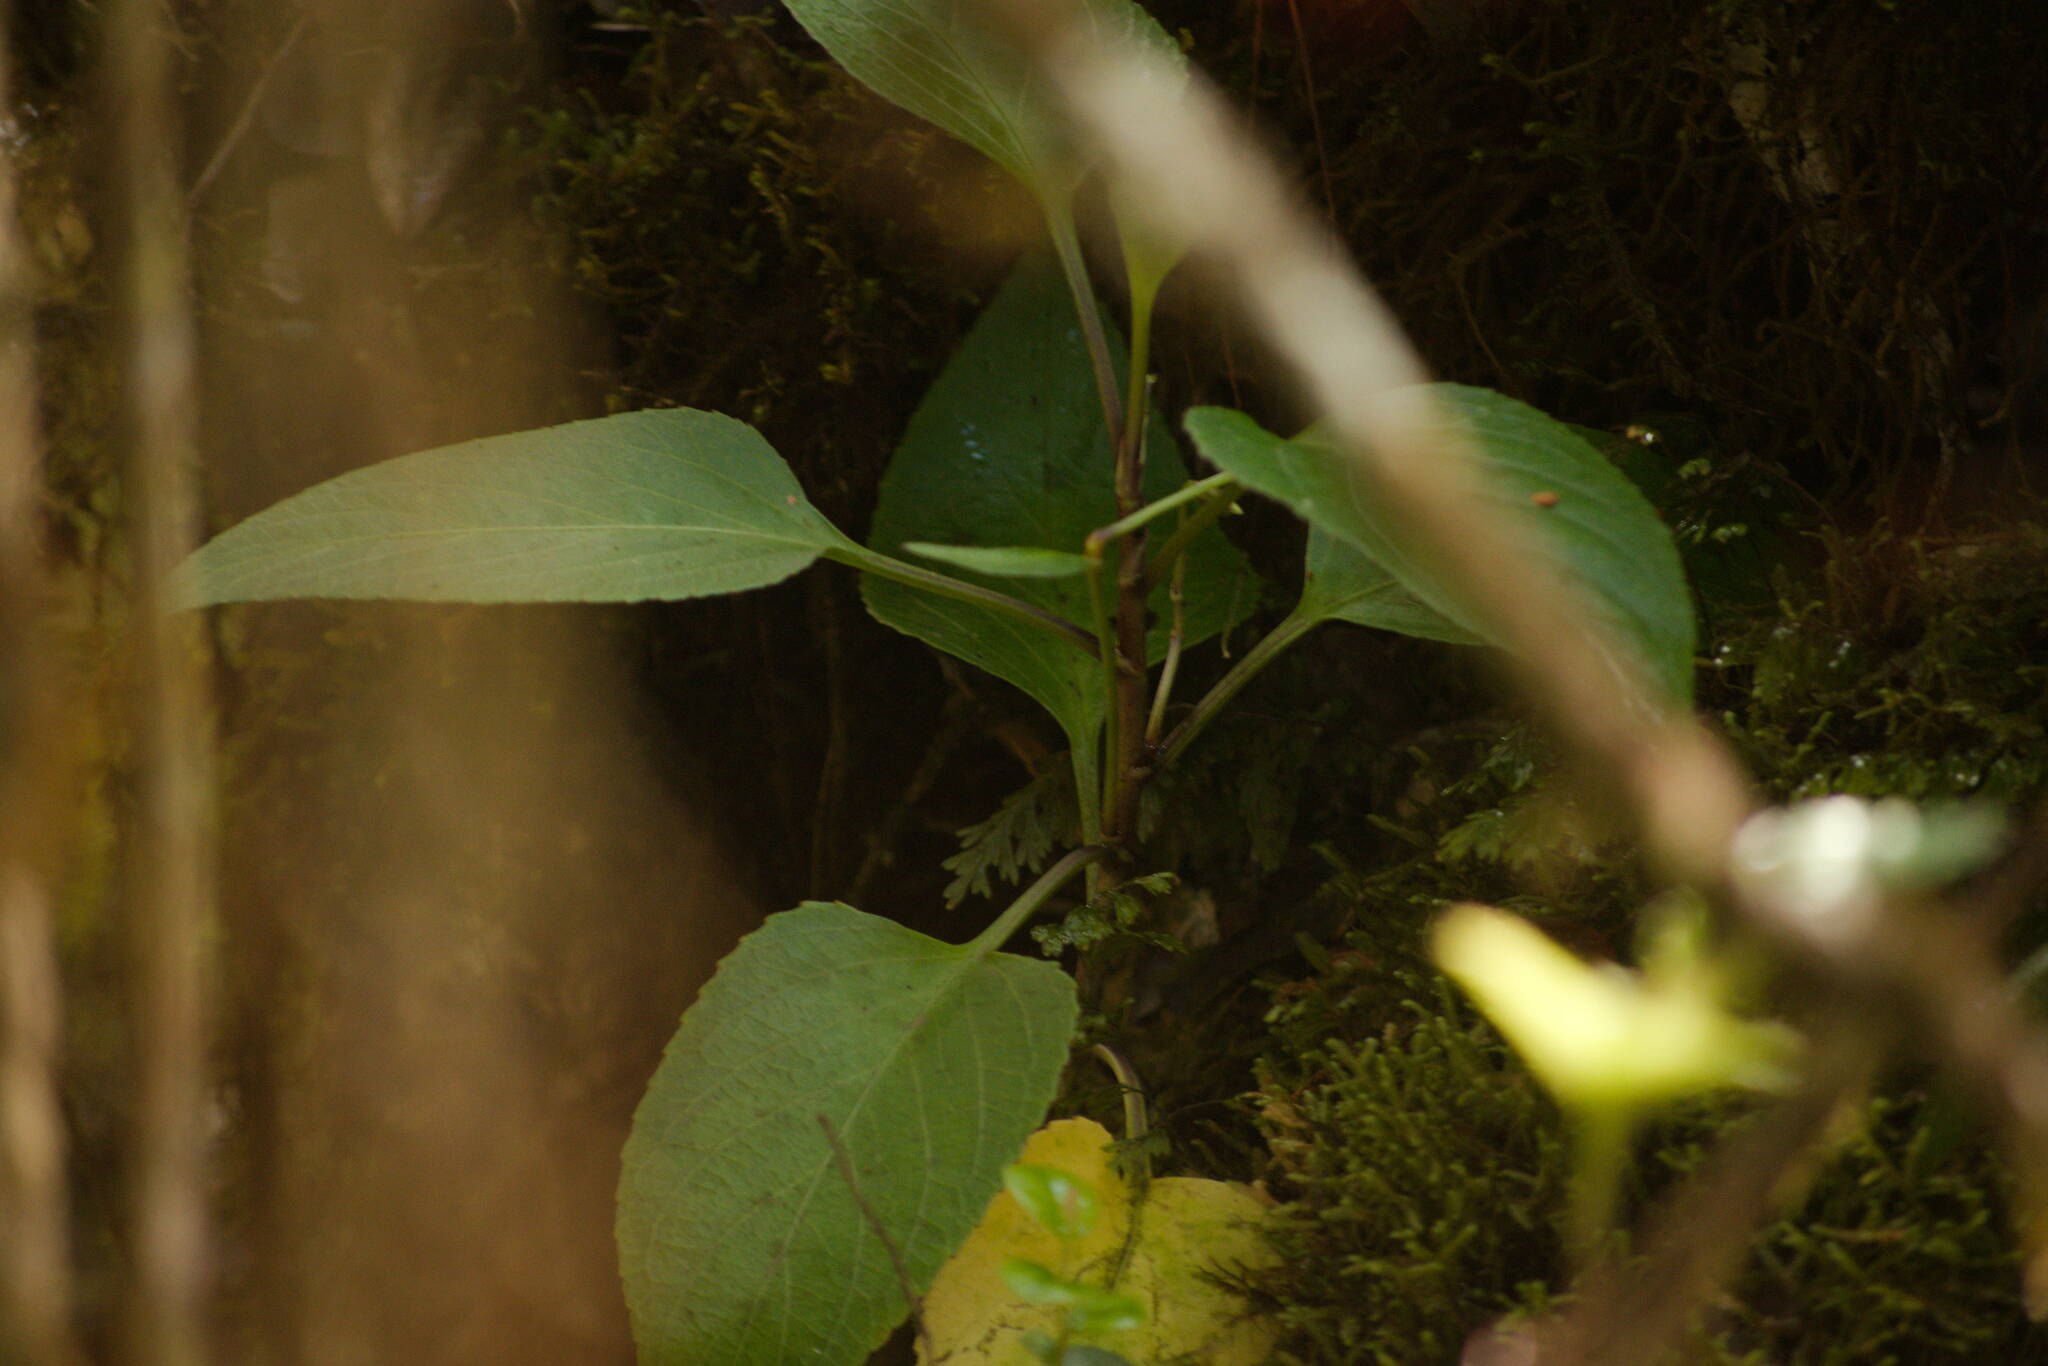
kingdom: Plantae
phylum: Tracheophyta
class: Magnoliopsida
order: Malpighiales
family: Violaceae
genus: Viola
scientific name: Viola chamissoniana
